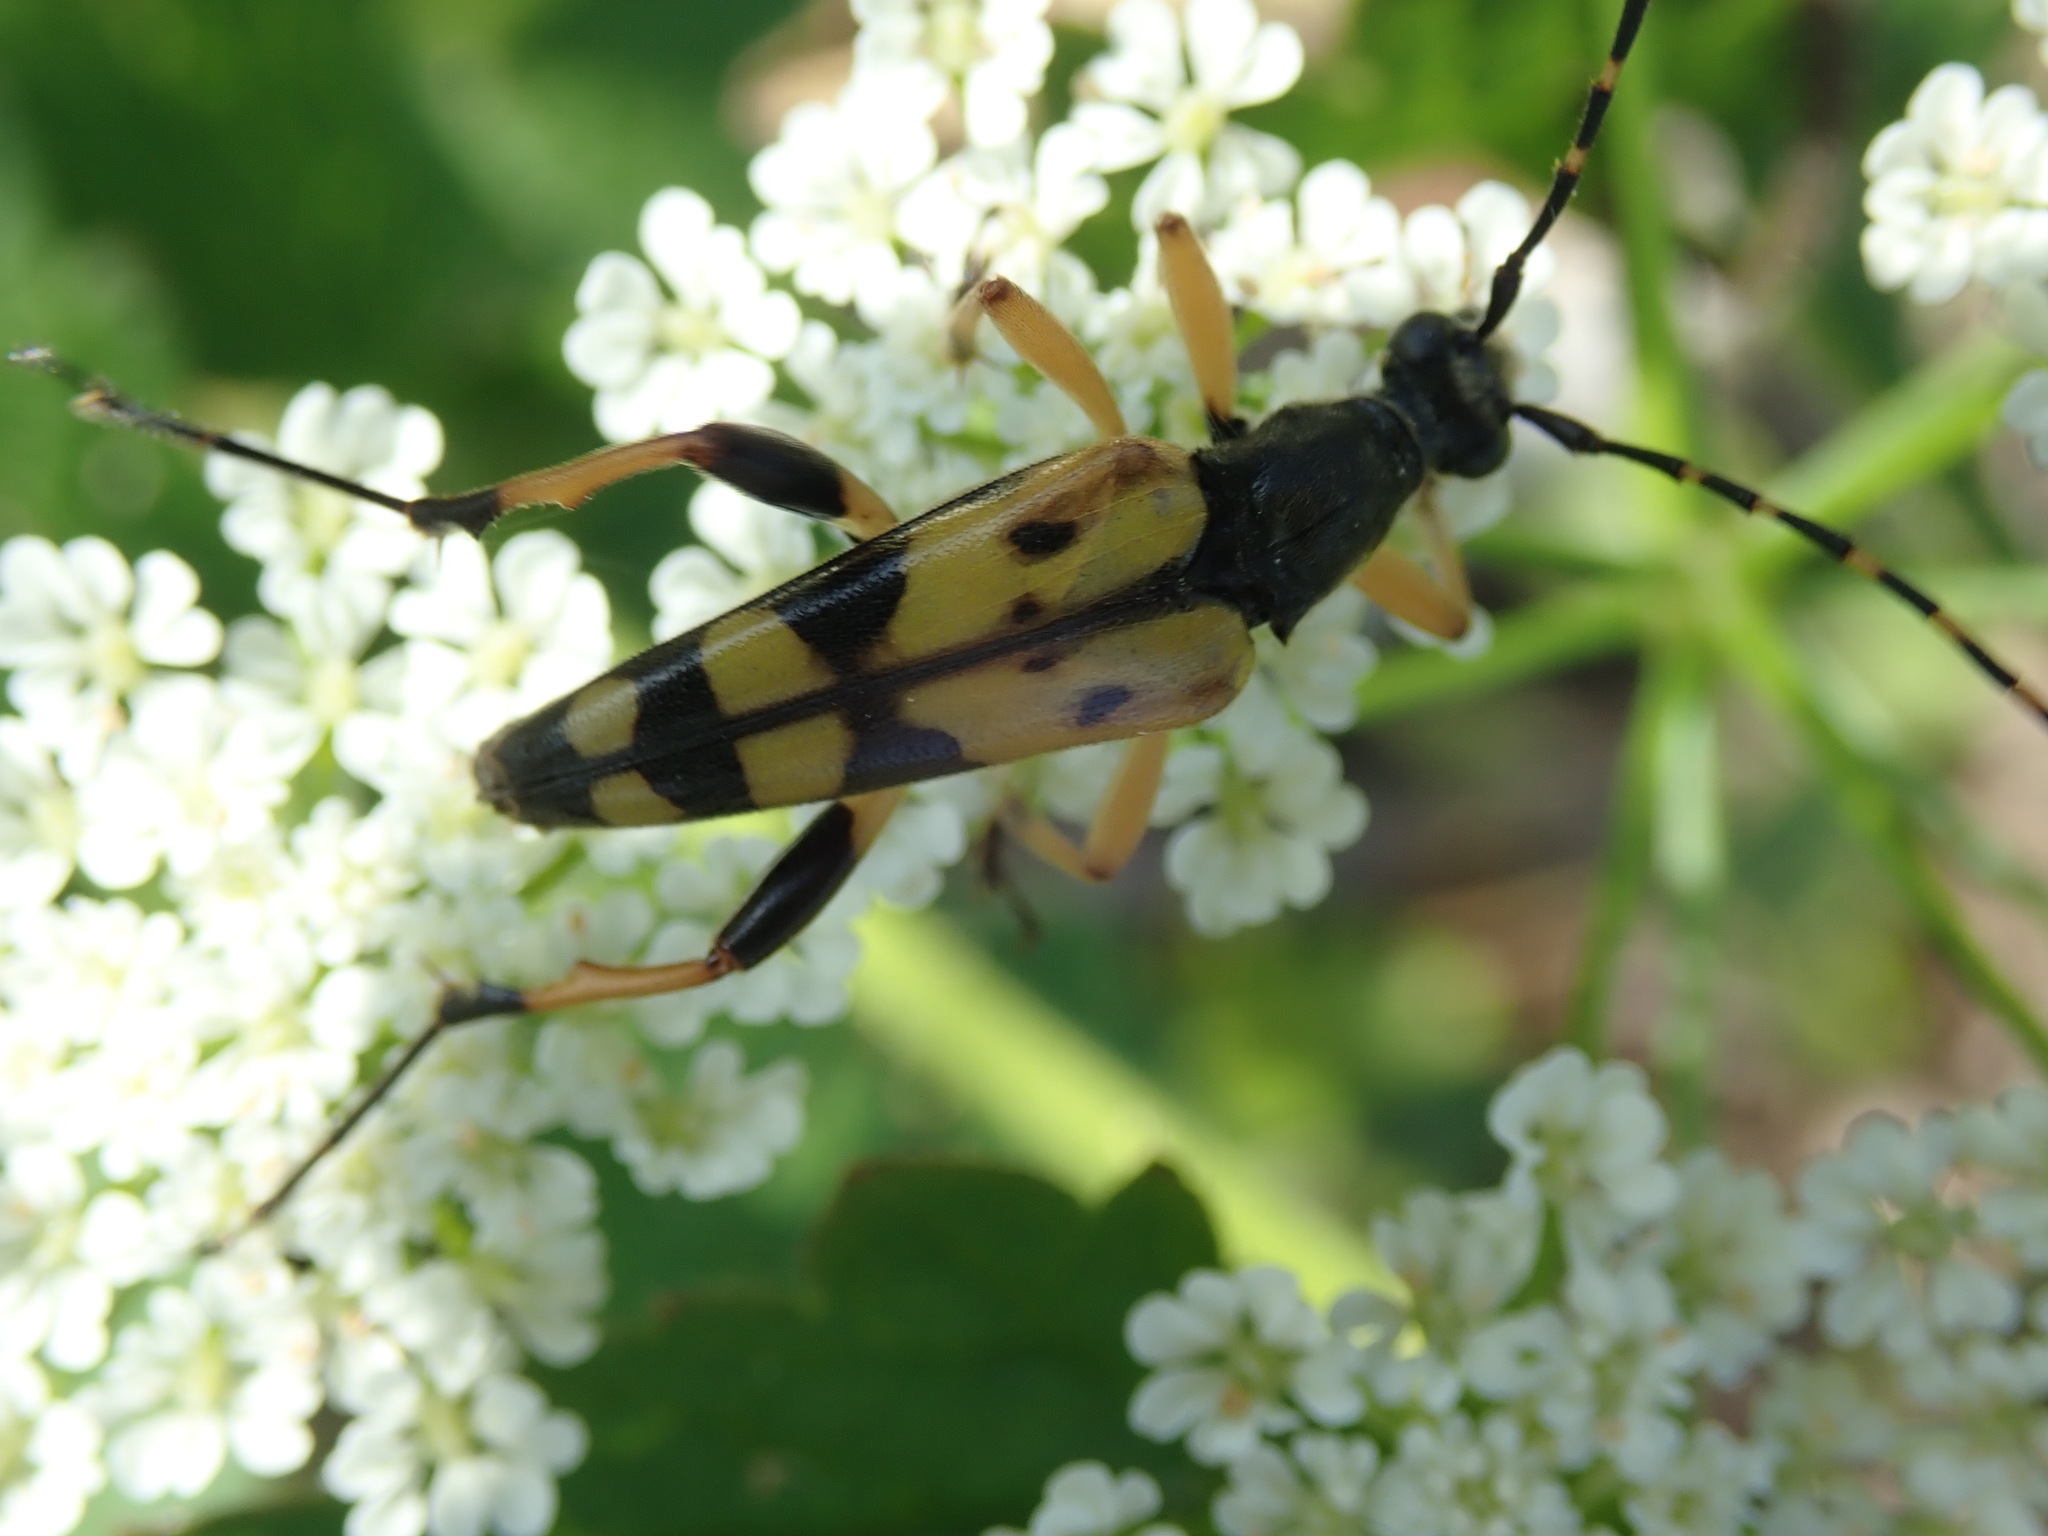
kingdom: Animalia
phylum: Arthropoda
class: Insecta
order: Coleoptera
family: Cerambycidae
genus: Rutpela
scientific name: Rutpela maculata
